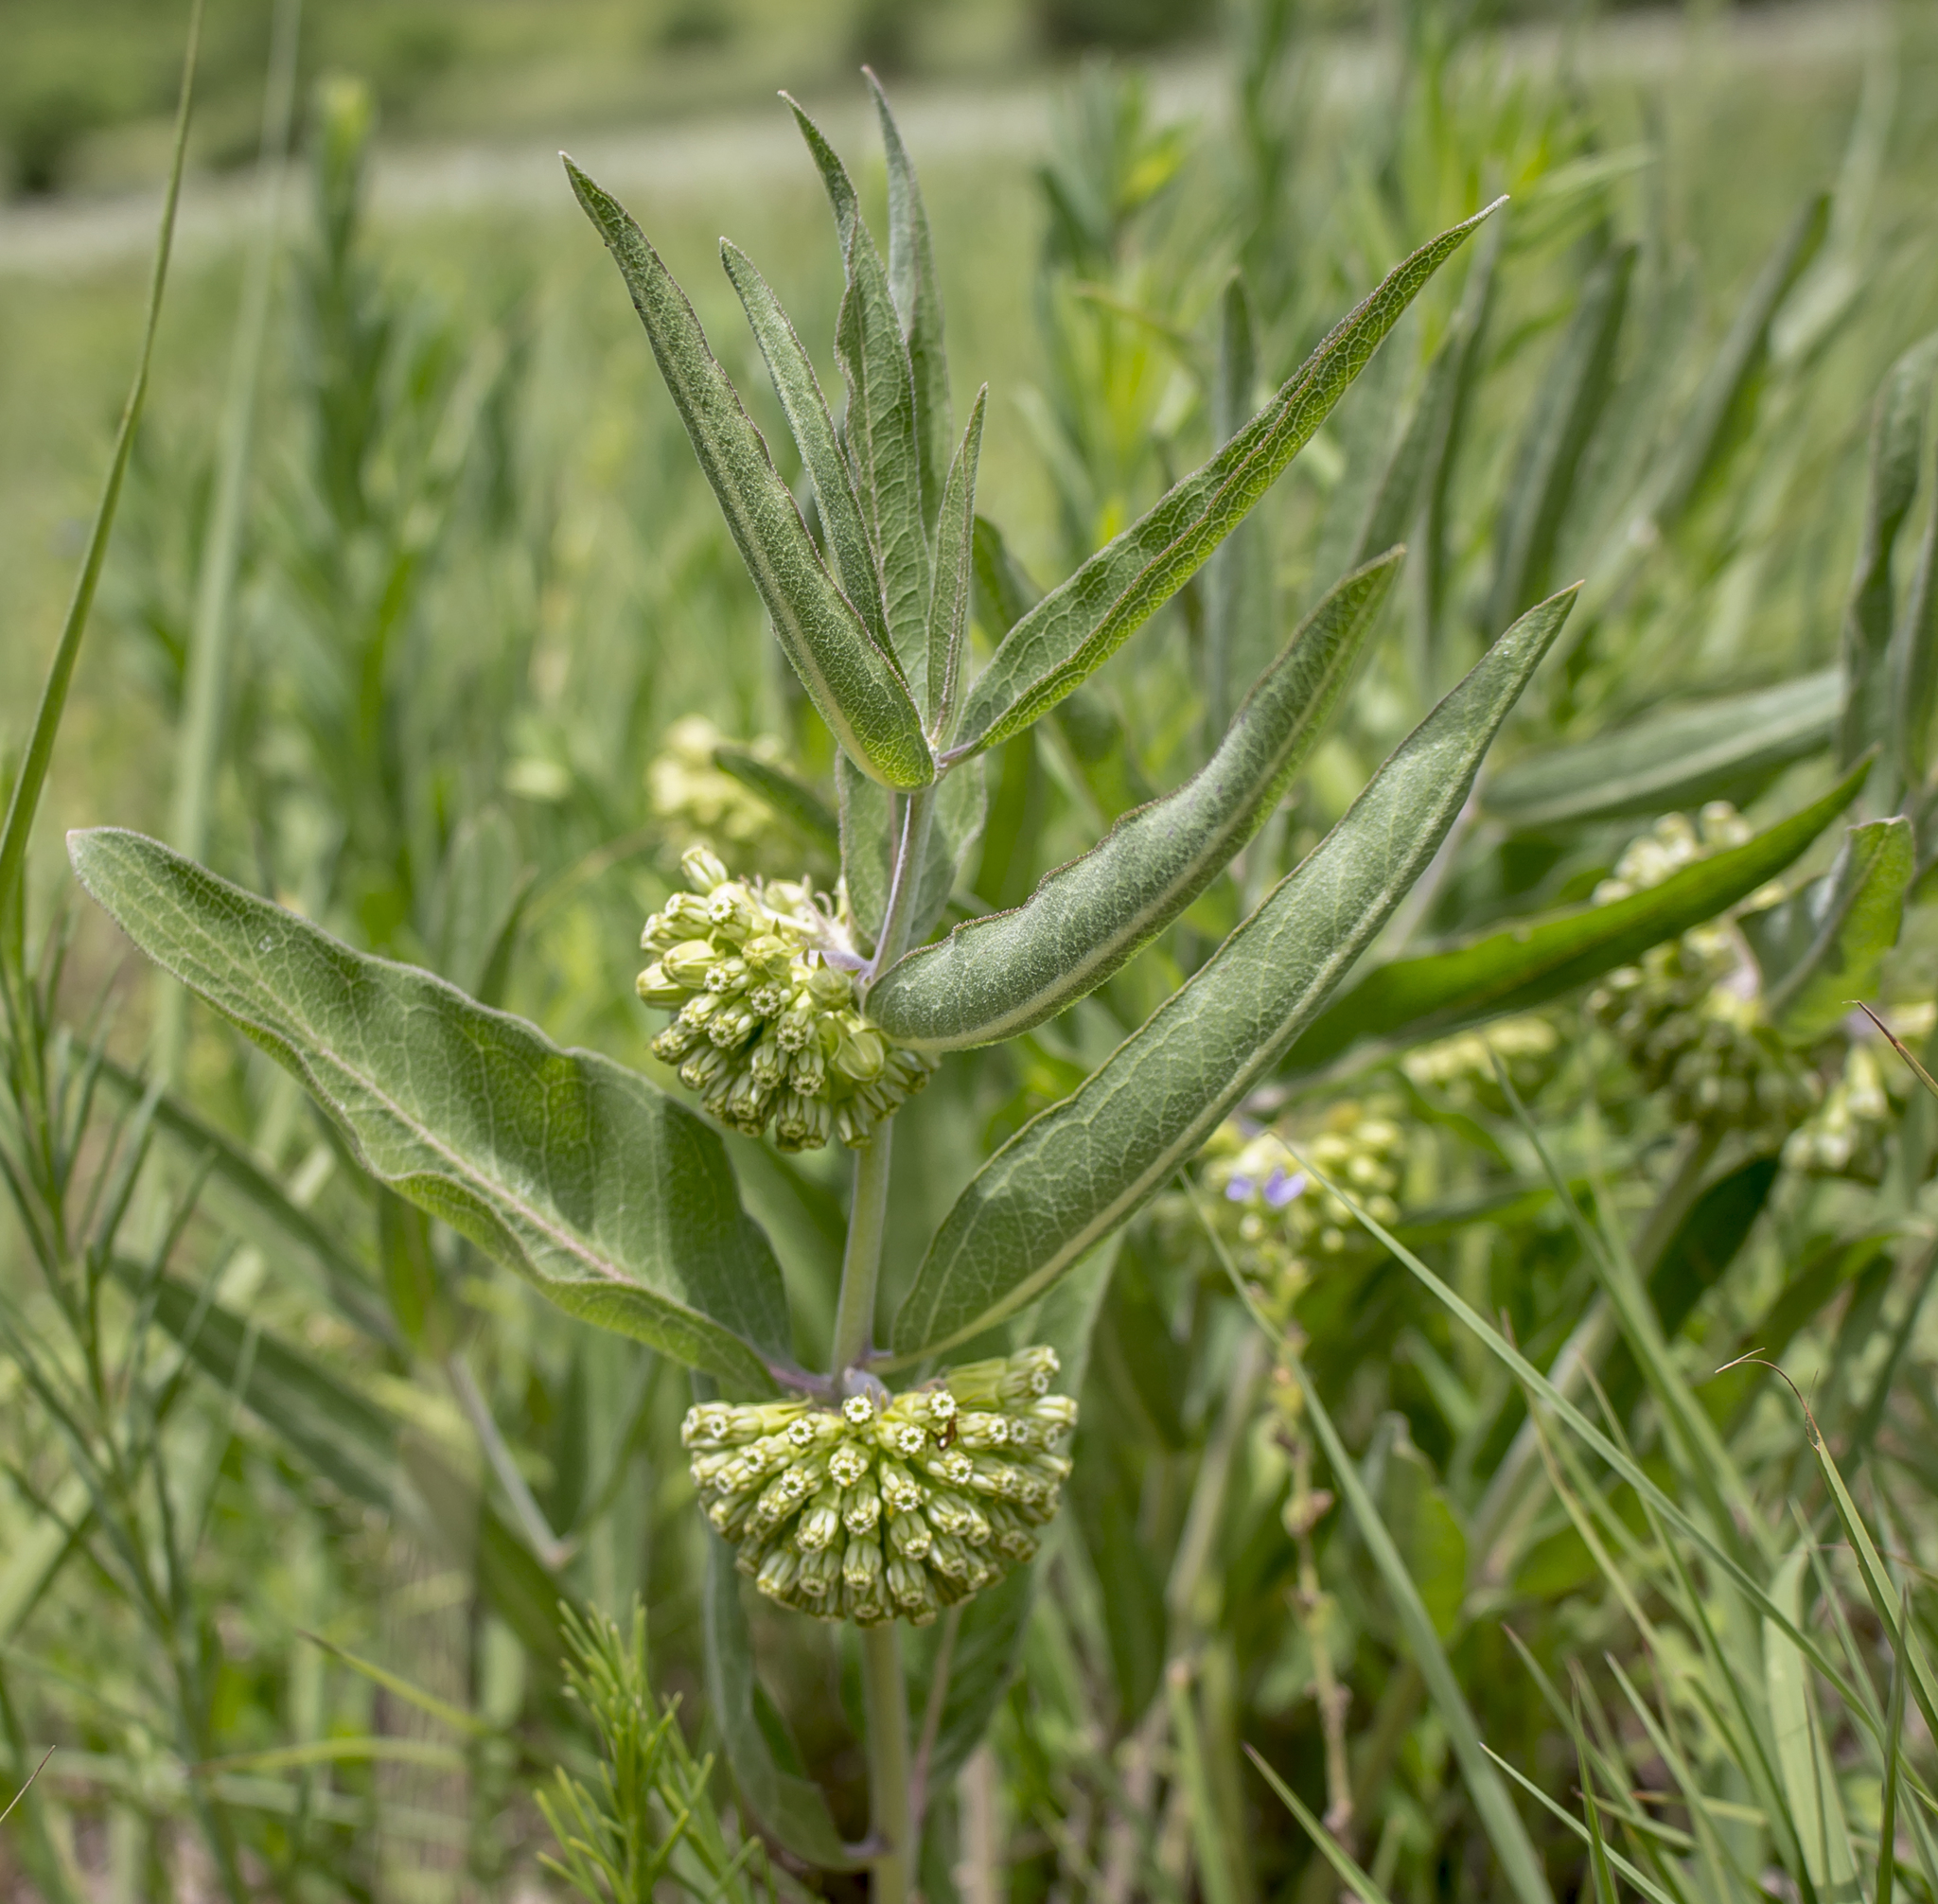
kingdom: Plantae
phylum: Tracheophyta
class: Magnoliopsida
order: Gentianales
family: Apocynaceae
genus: Asclepias
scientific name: Asclepias viridiflora
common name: Green comet milkweed
